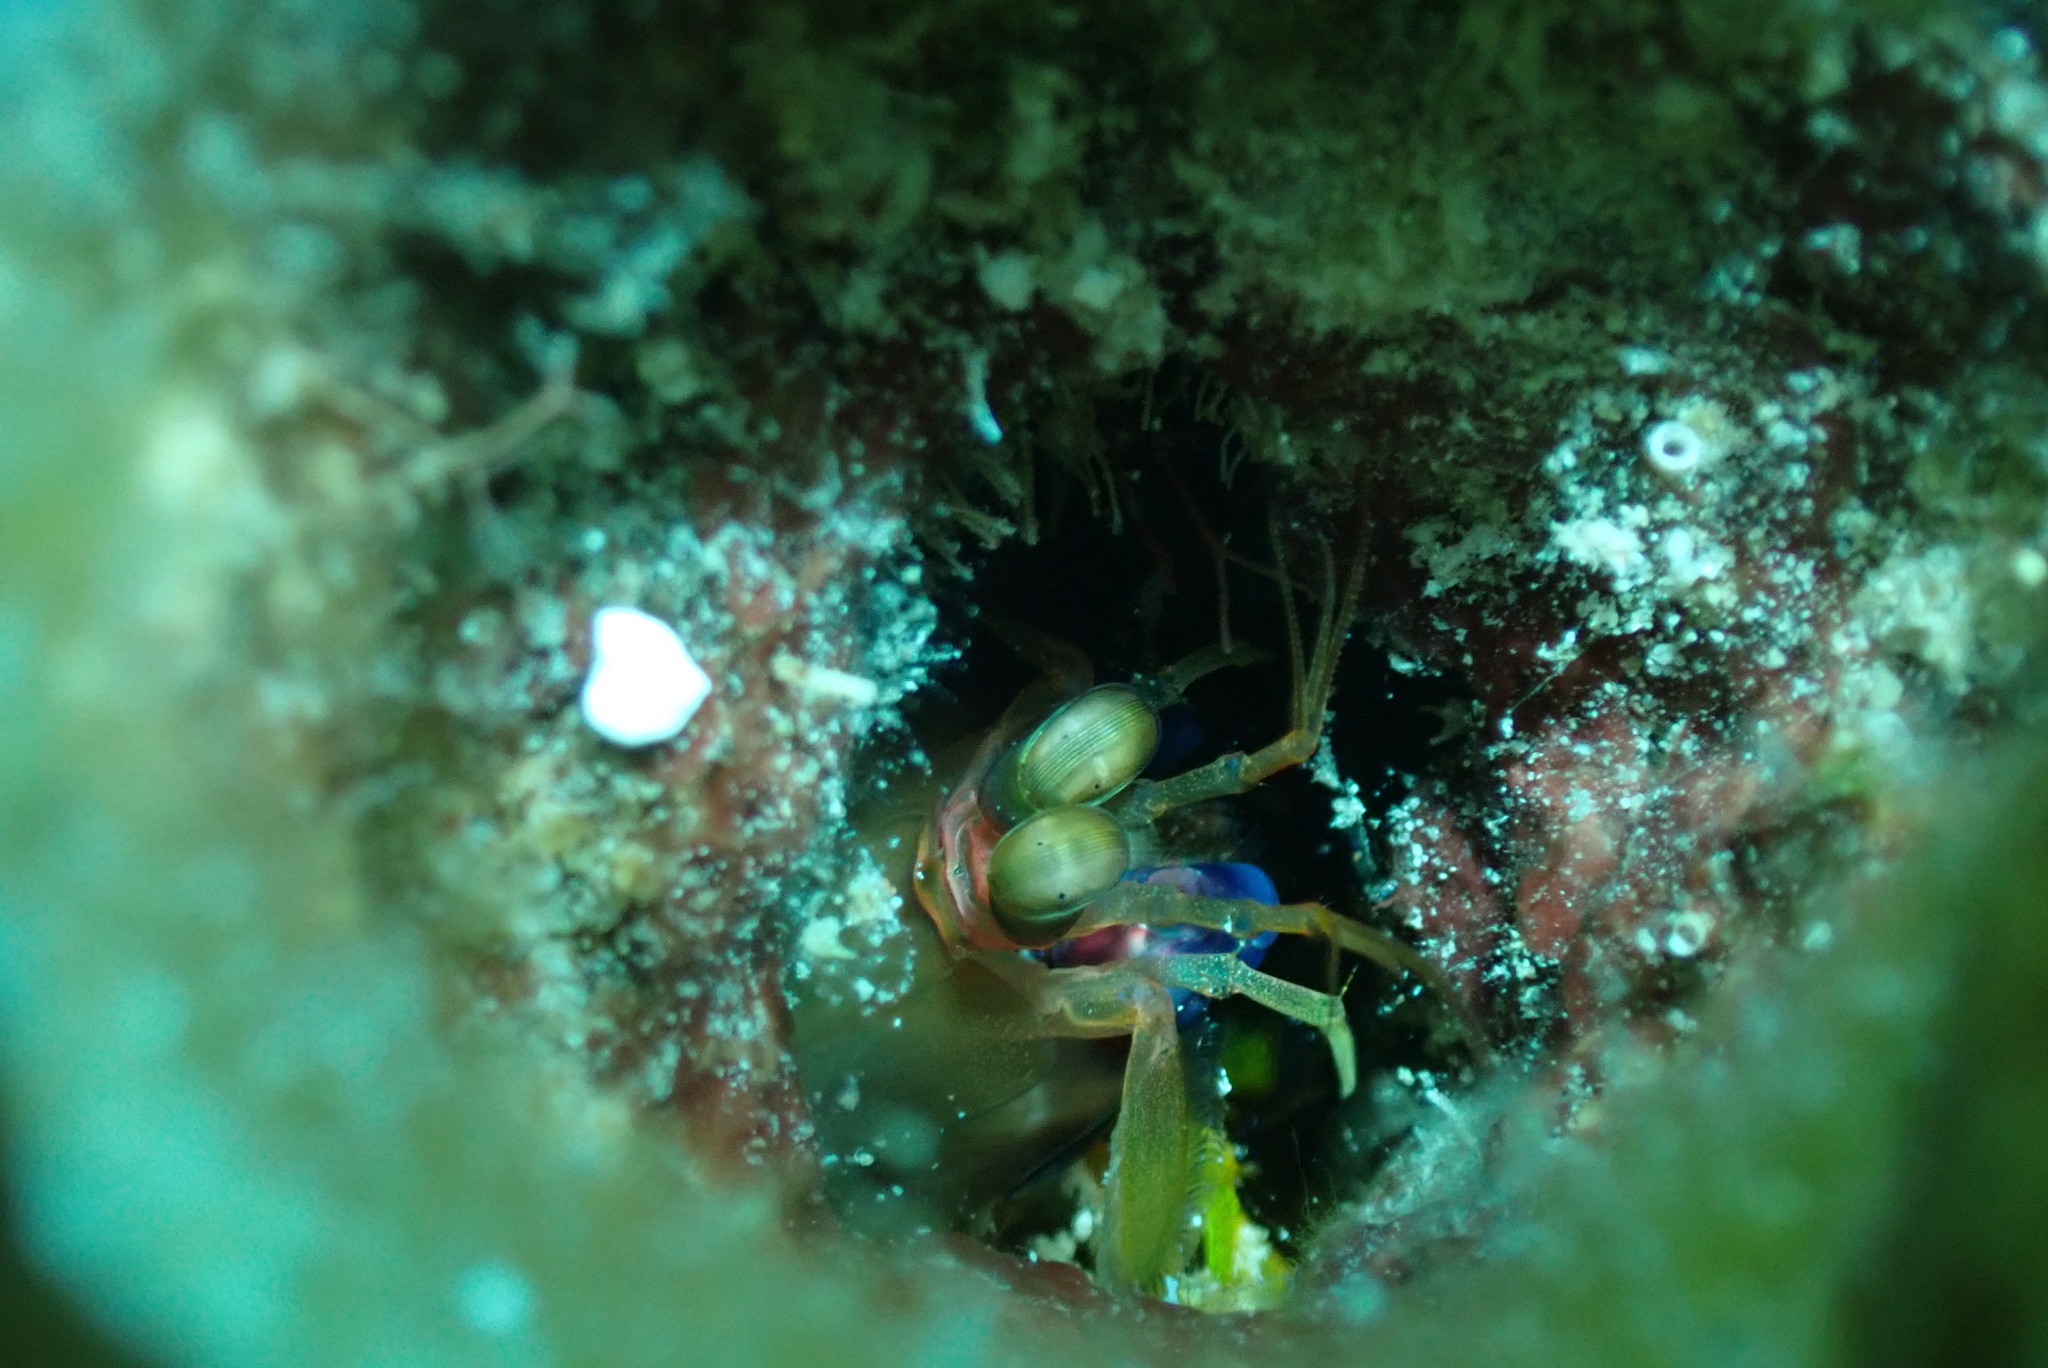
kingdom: Animalia
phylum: Arthropoda
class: Malacostraca
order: Stomatopoda
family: Gonodactylidae
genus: Neogonodactylus
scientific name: Neogonodactylus curacaoensis
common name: Dark mantis
